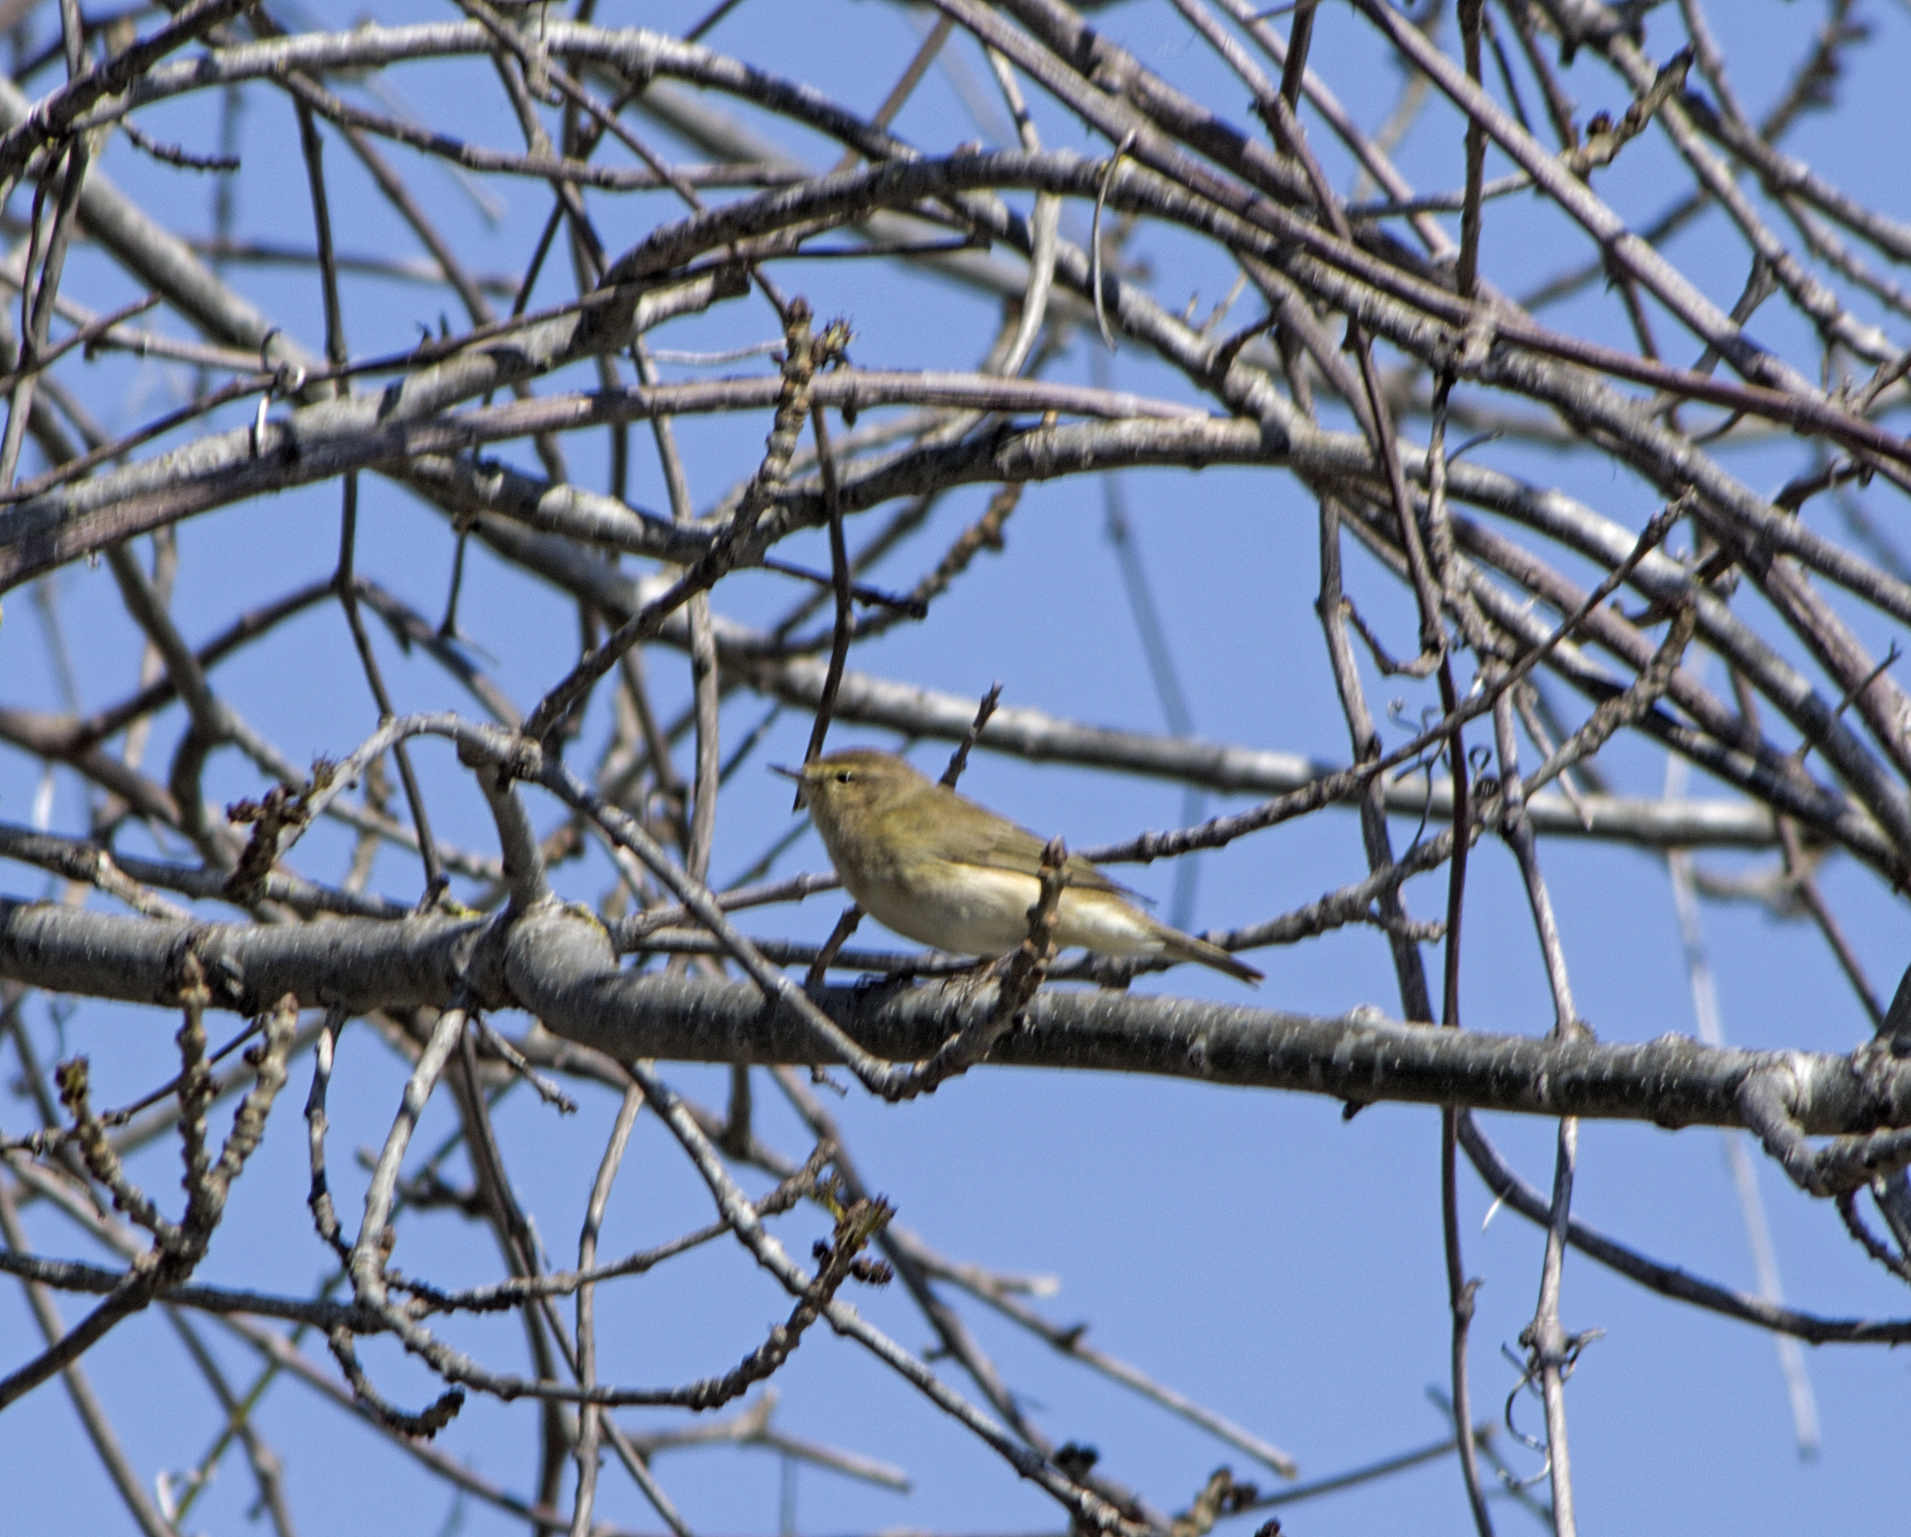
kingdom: Animalia
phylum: Chordata
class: Aves
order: Passeriformes
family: Phylloscopidae
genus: Phylloscopus
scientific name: Phylloscopus collybita
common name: Common chiffchaff
